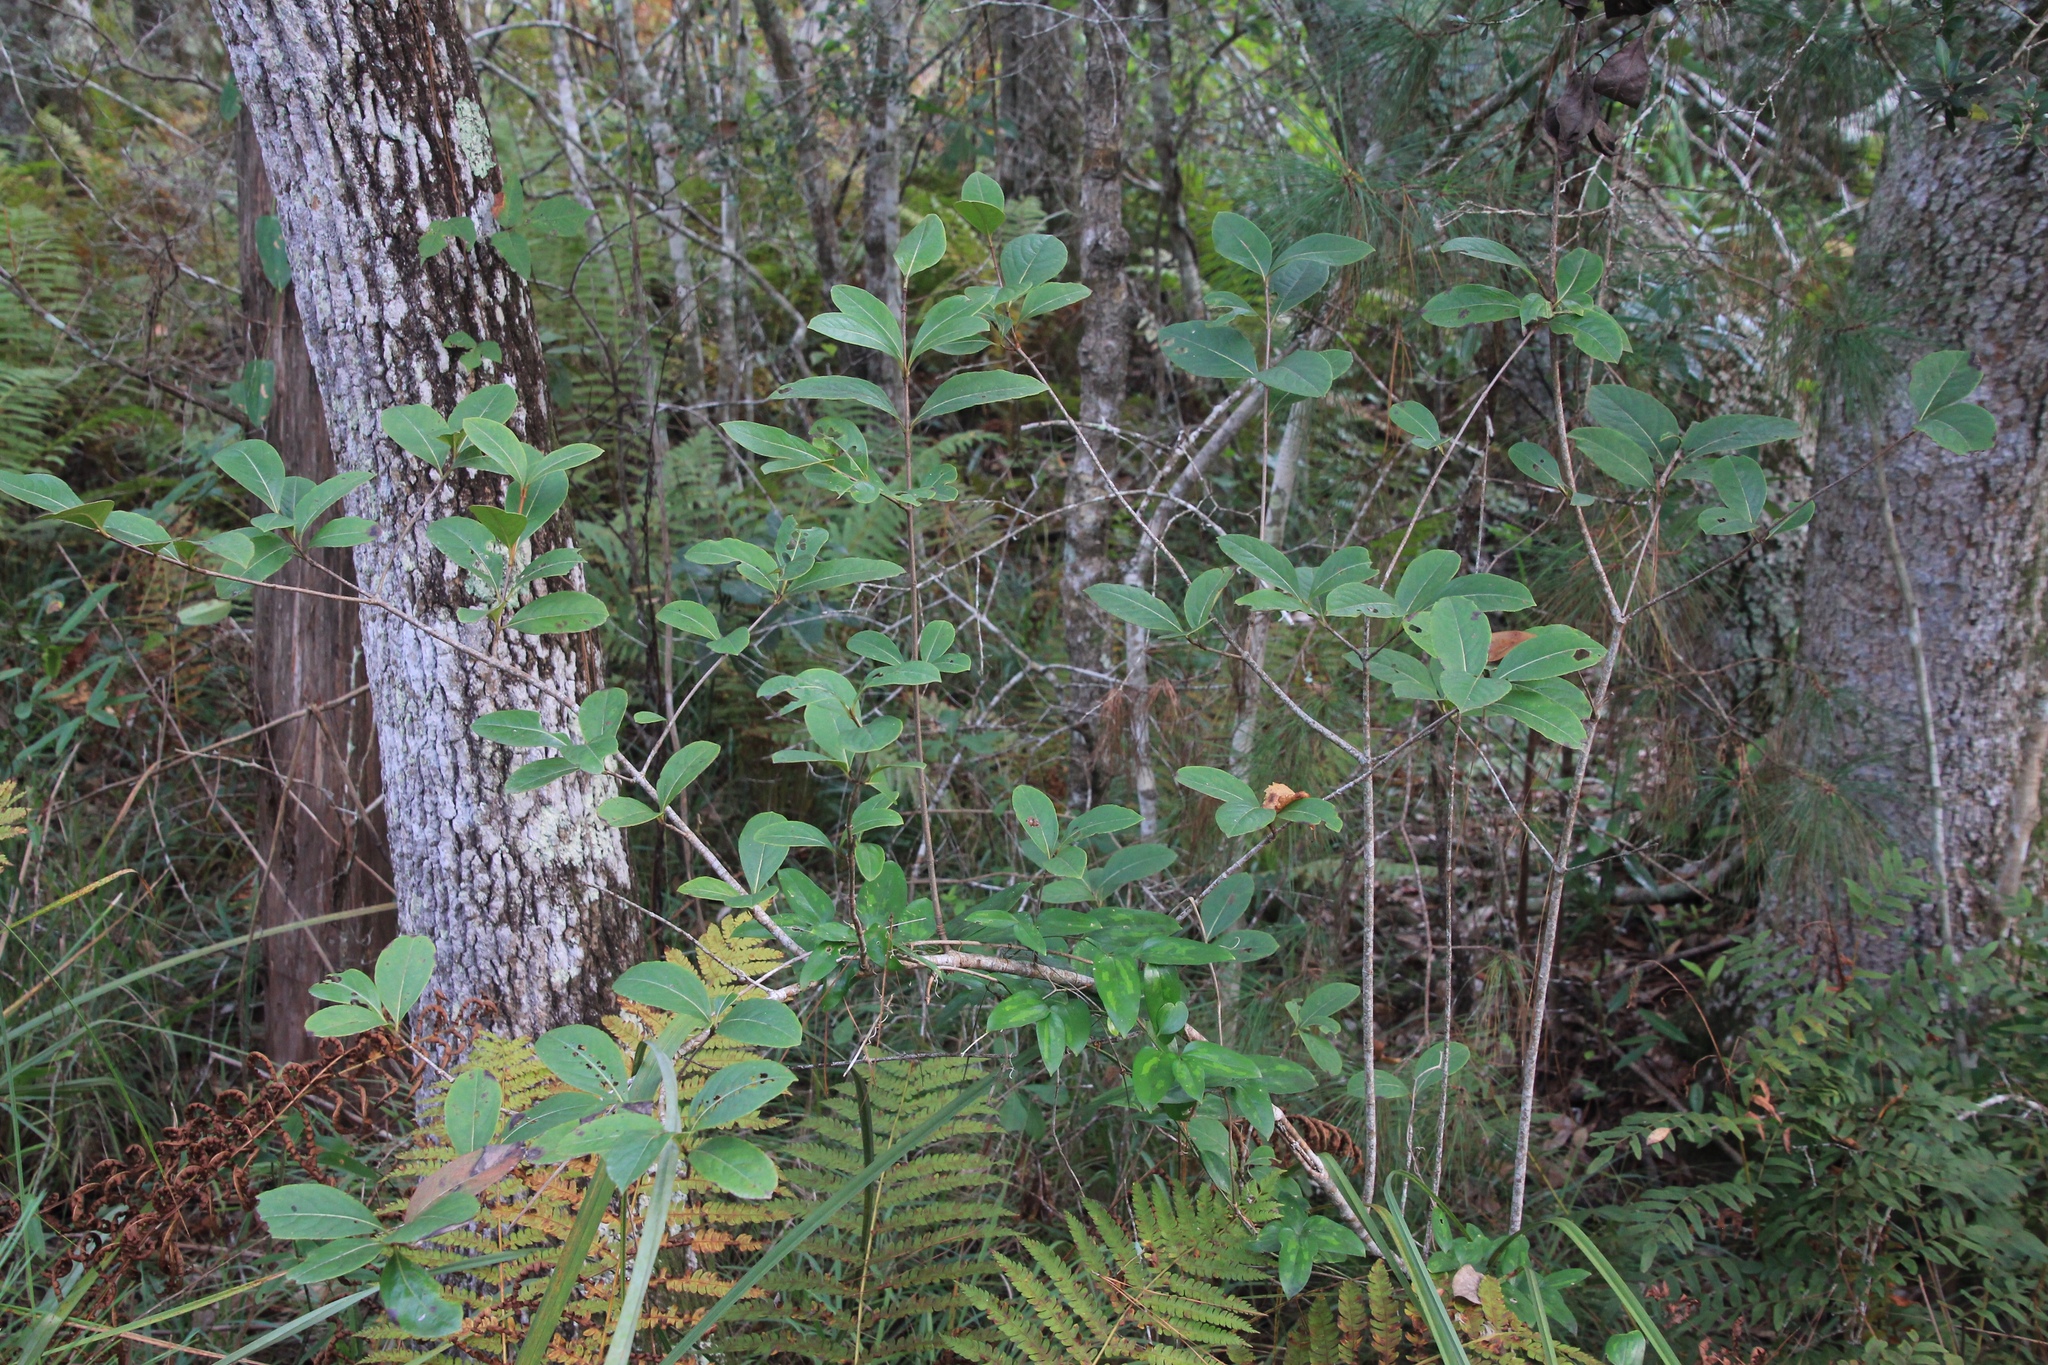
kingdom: Plantae
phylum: Tracheophyta
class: Magnoliopsida
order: Dipsacales
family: Viburnaceae
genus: Viburnum
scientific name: Viburnum nudum
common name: Possum haw
